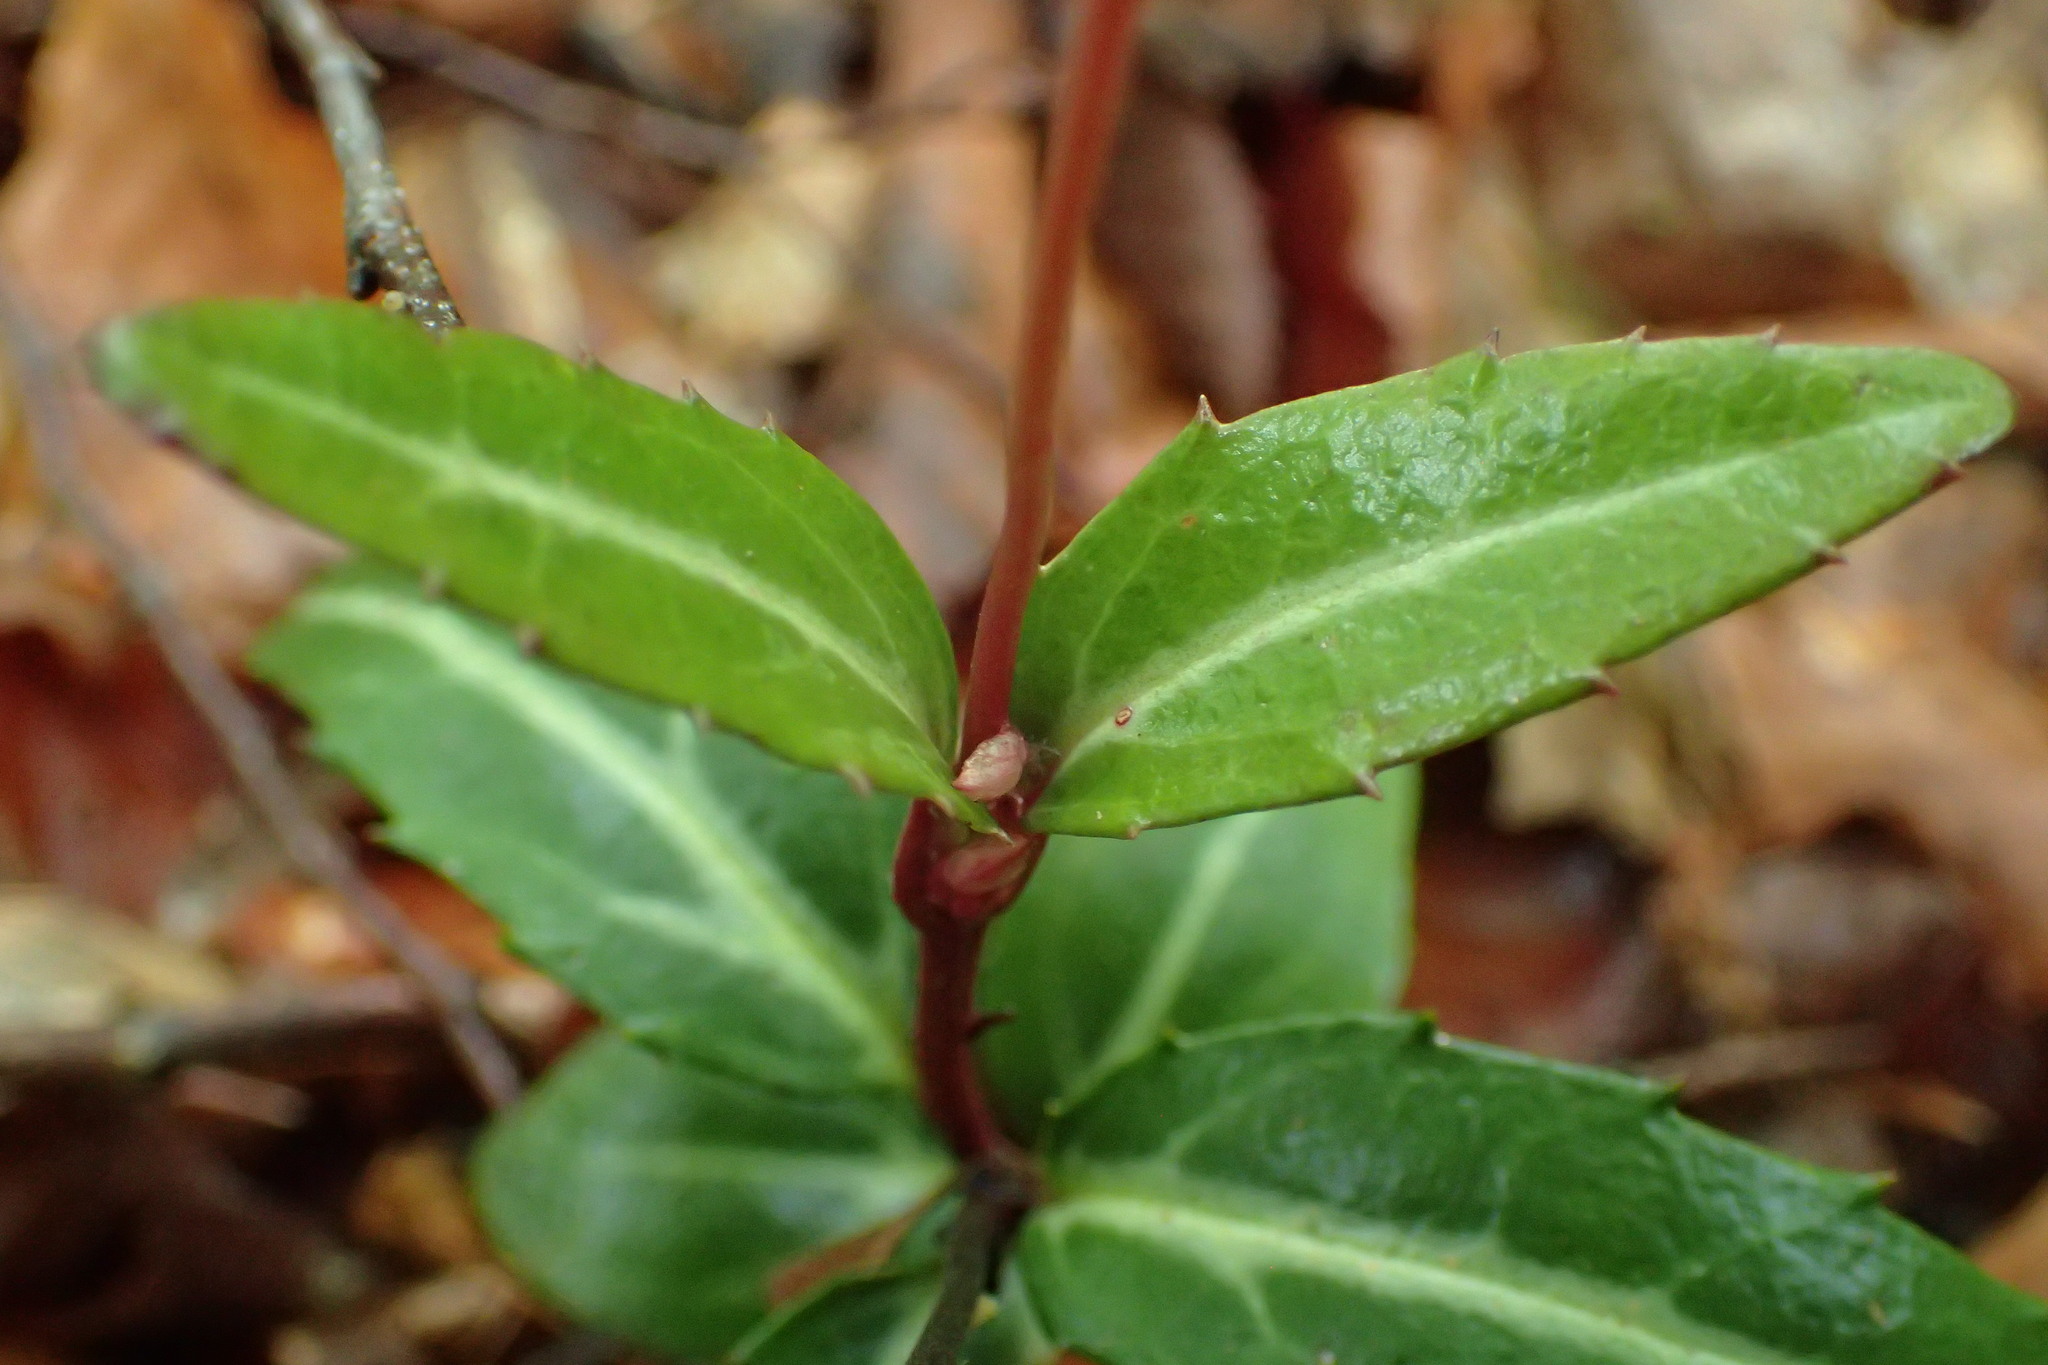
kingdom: Plantae
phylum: Tracheophyta
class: Magnoliopsida
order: Ericales
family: Ericaceae
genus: Chimaphila
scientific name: Chimaphila maculata
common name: Spotted pipsissewa
